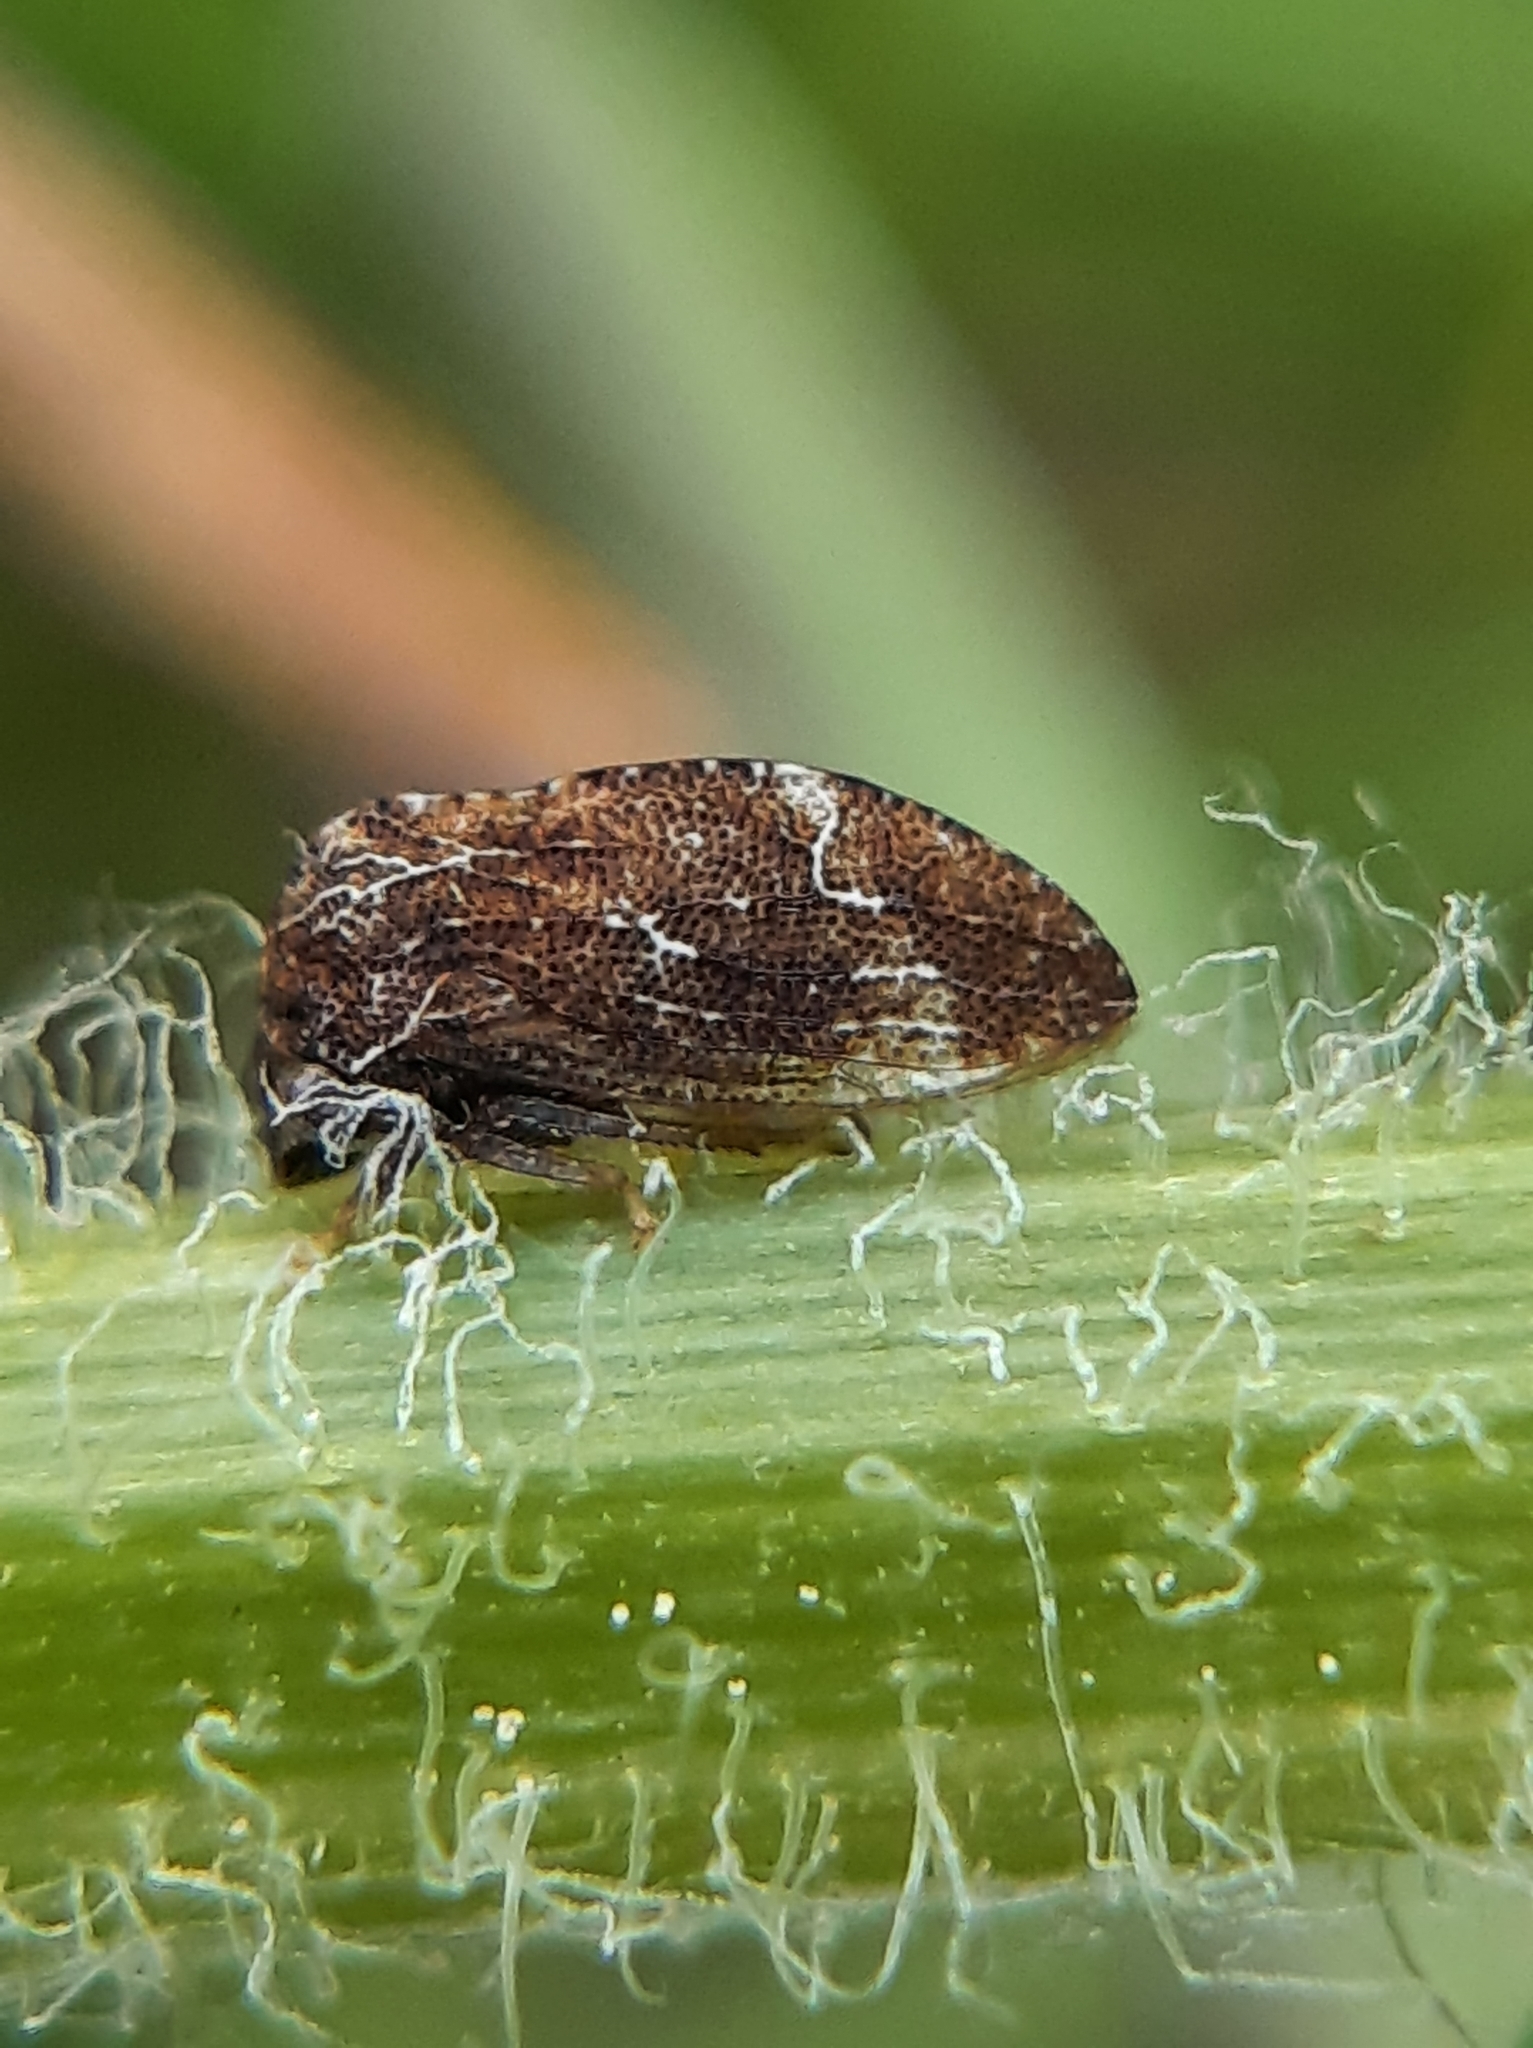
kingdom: Animalia
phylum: Arthropoda
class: Insecta
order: Hemiptera
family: Membracidae
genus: Publilia
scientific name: Publilia concava
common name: Aster treehopper
